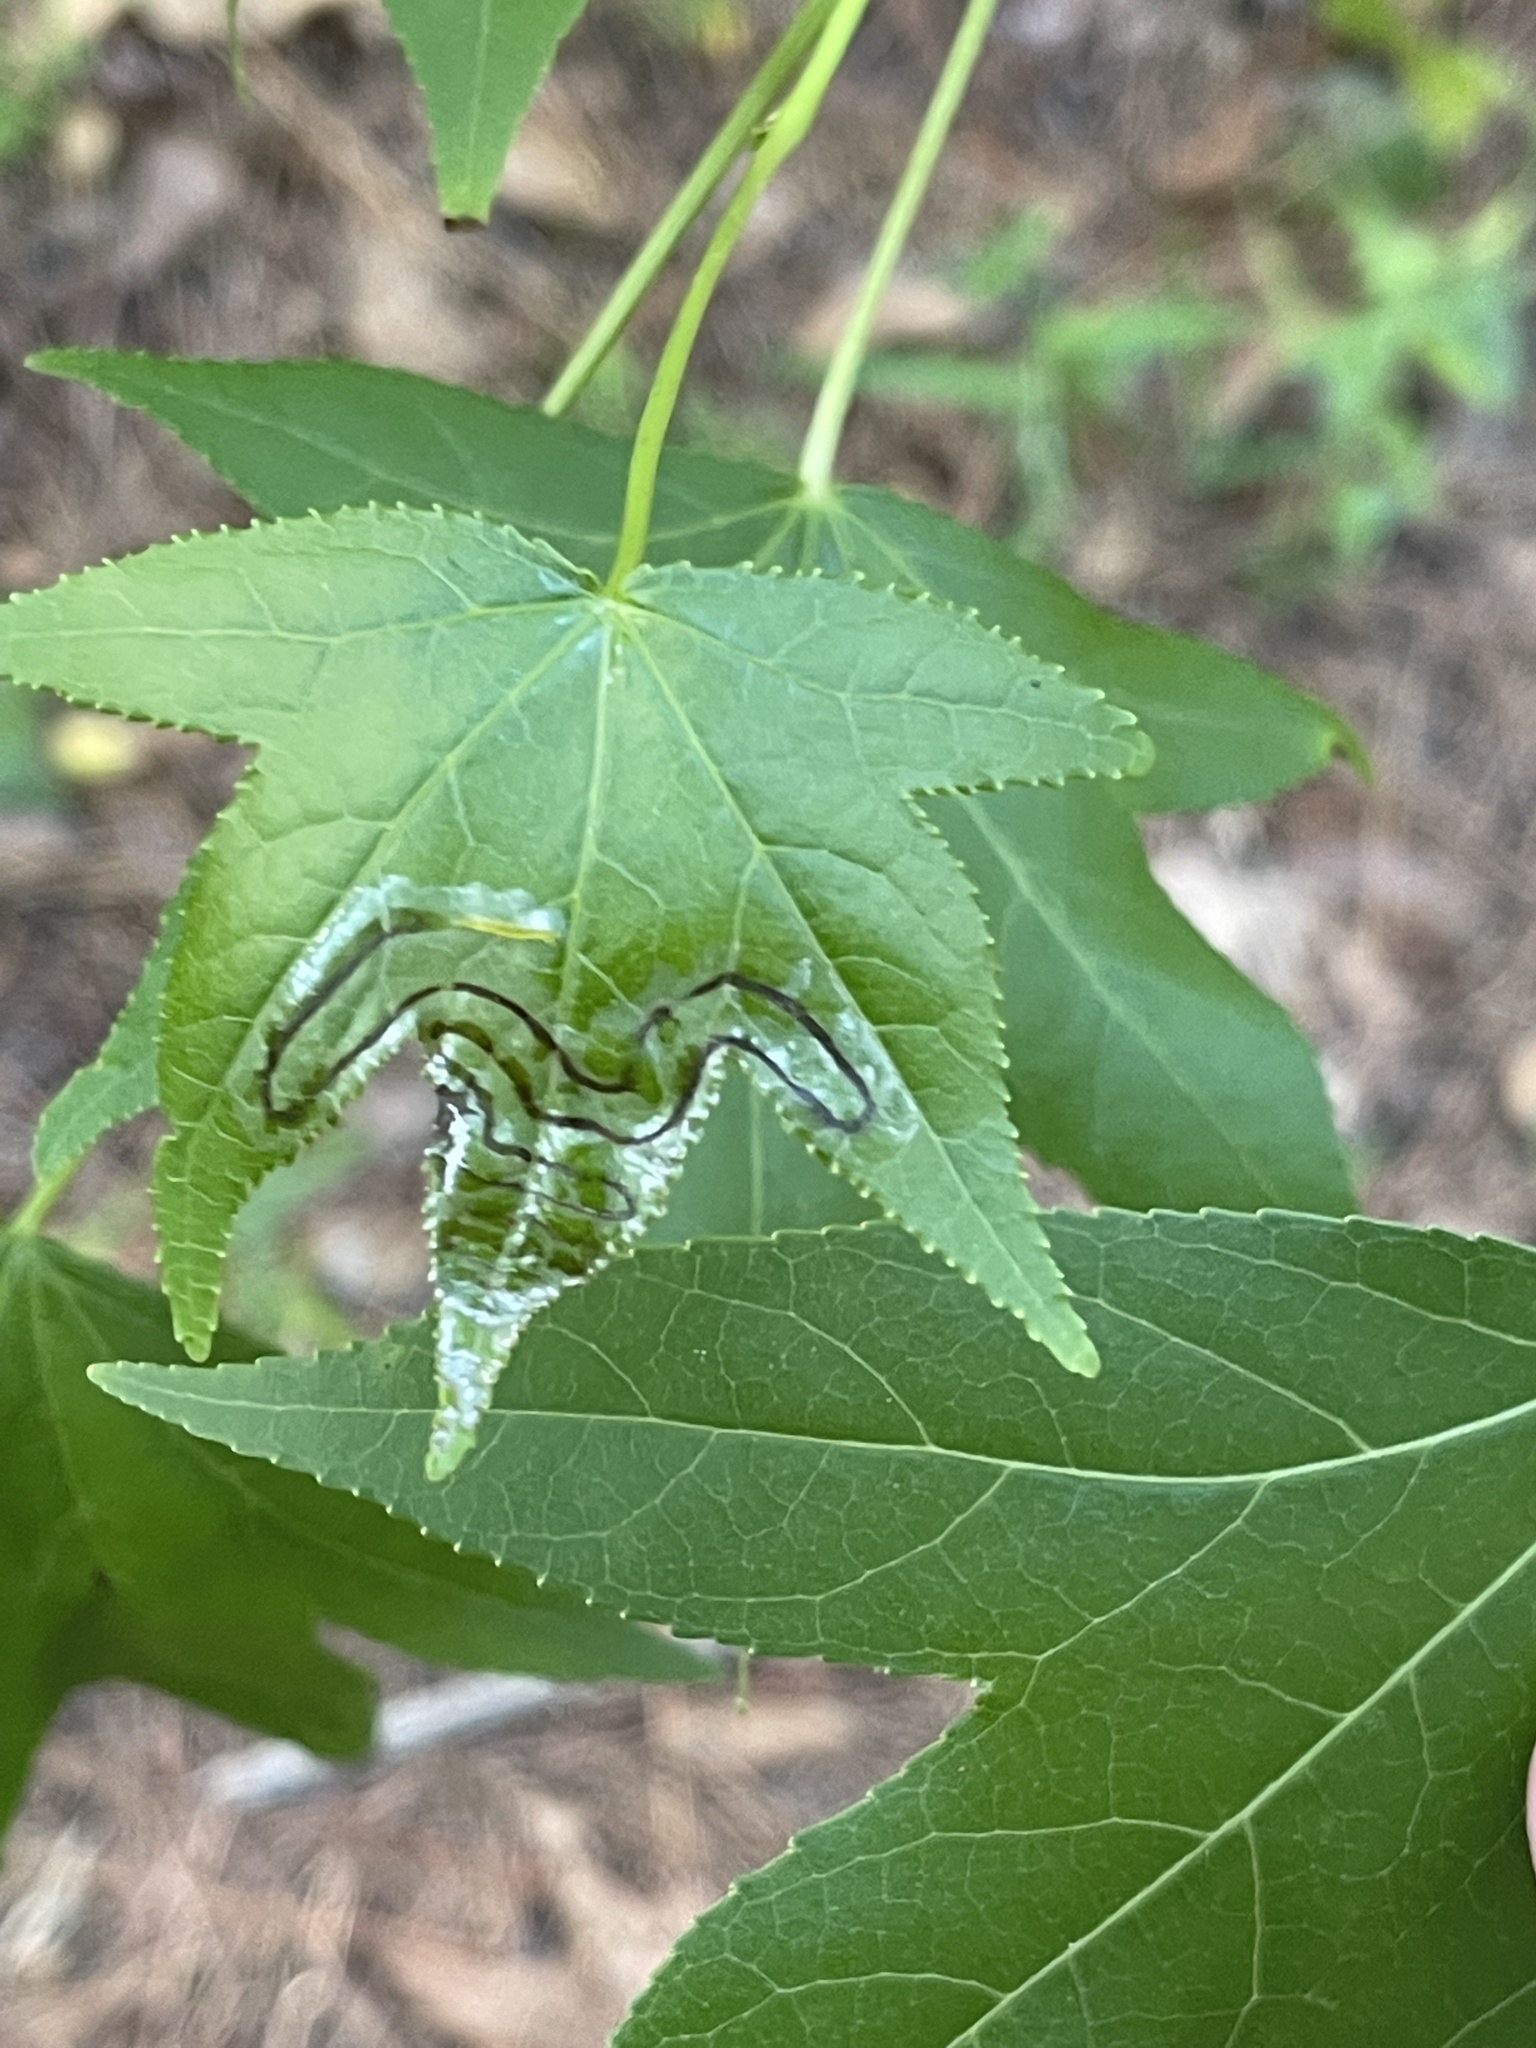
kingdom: Animalia
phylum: Arthropoda
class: Insecta
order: Lepidoptera
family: Gracillariidae
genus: Phyllocnistis
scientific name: Phyllocnistis liquidambarisella
